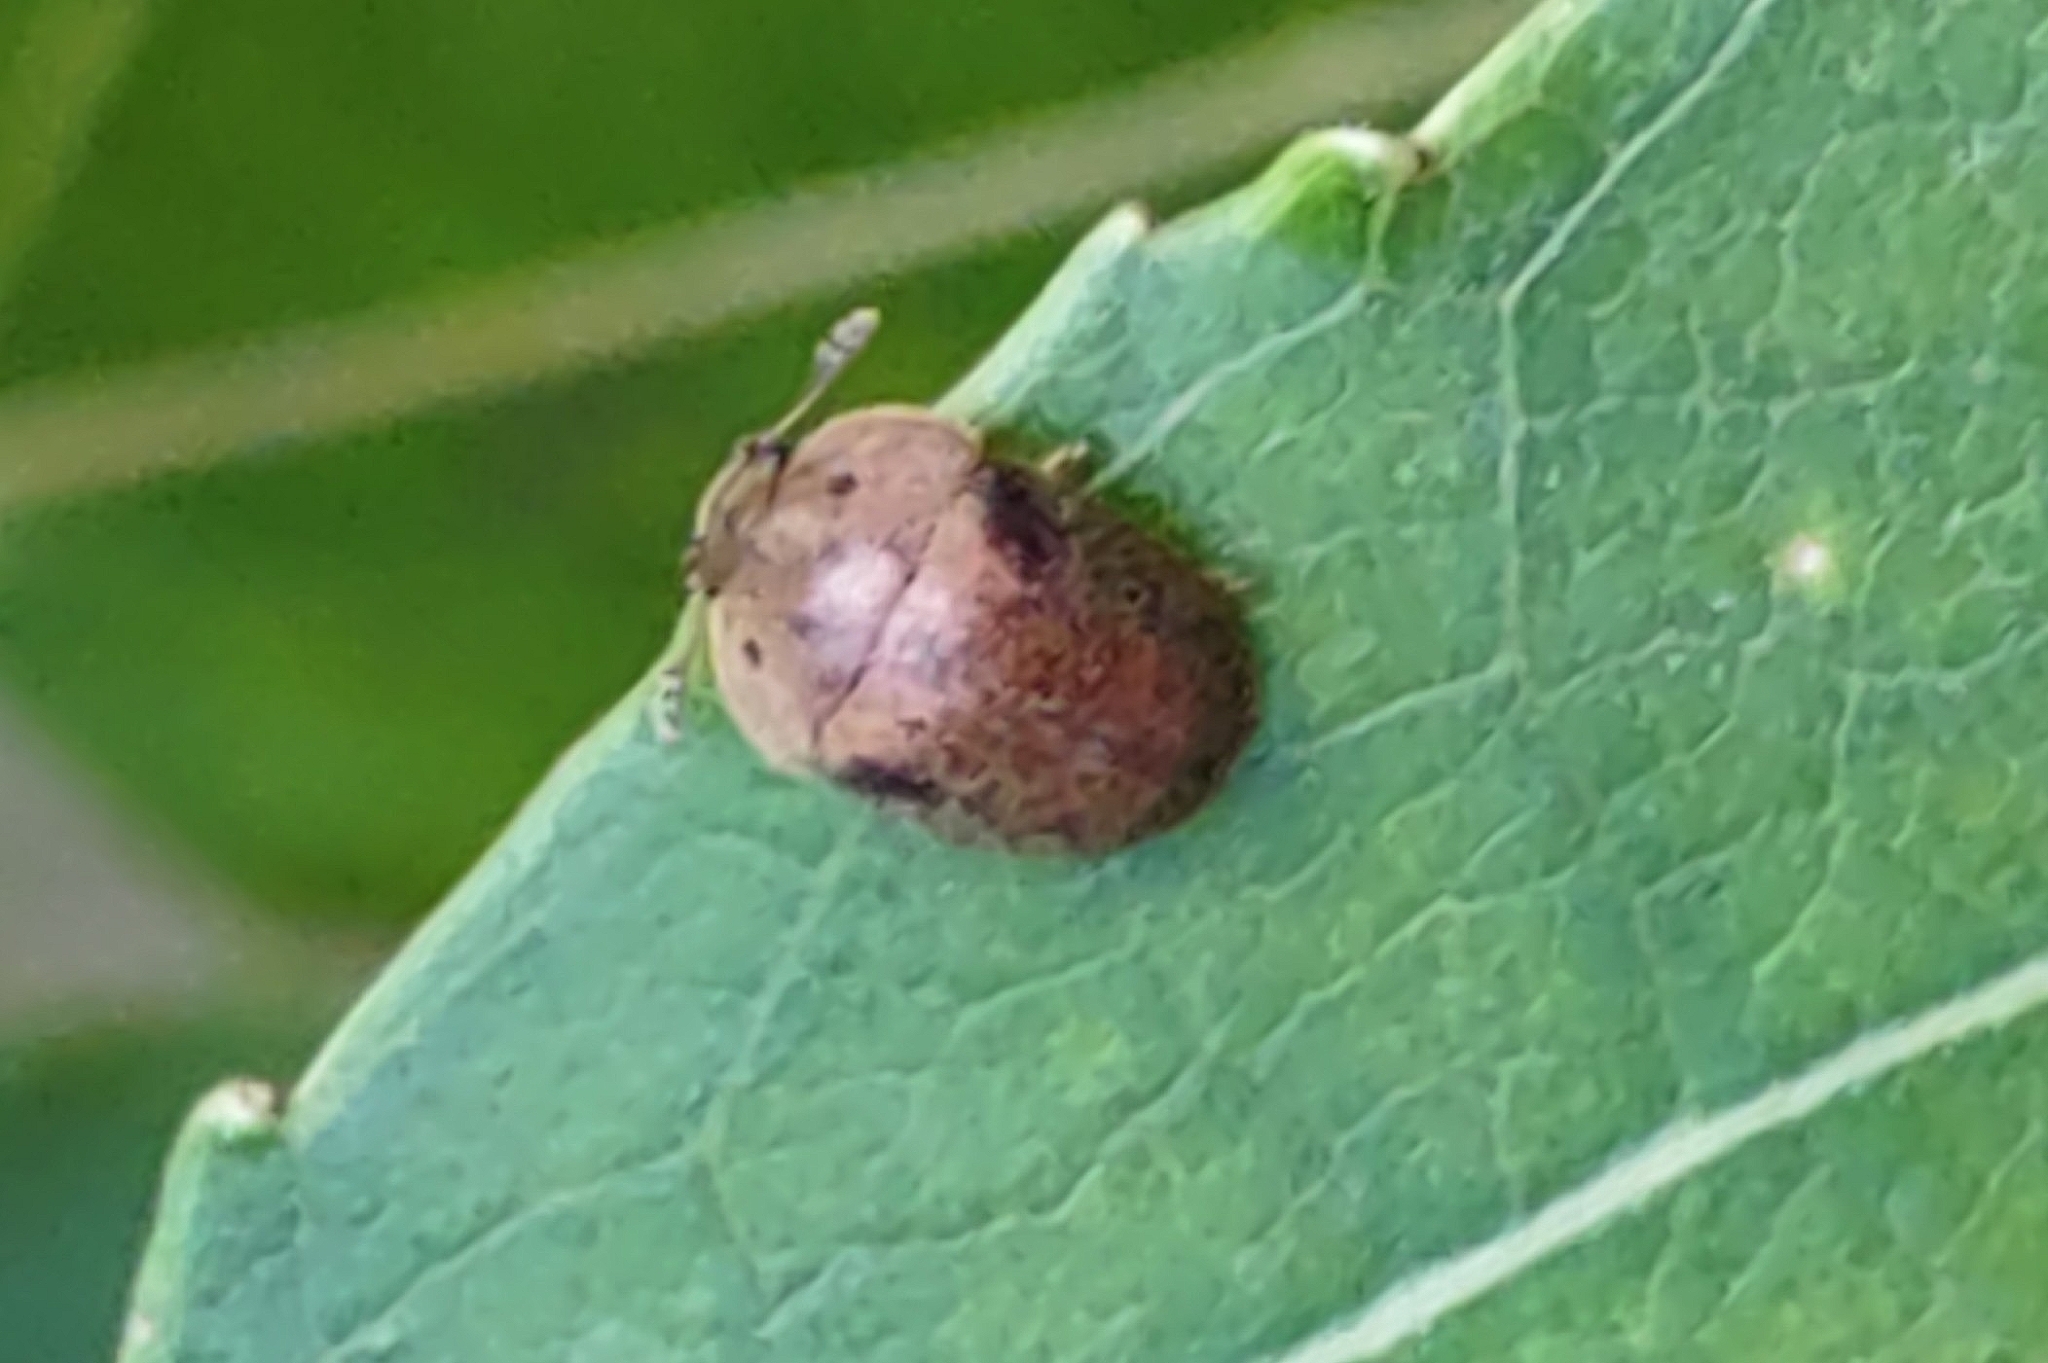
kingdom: Animalia
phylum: Arthropoda
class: Insecta
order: Coleoptera
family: Nitidulidae
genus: Cychramus
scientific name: Cychramus variegatus
